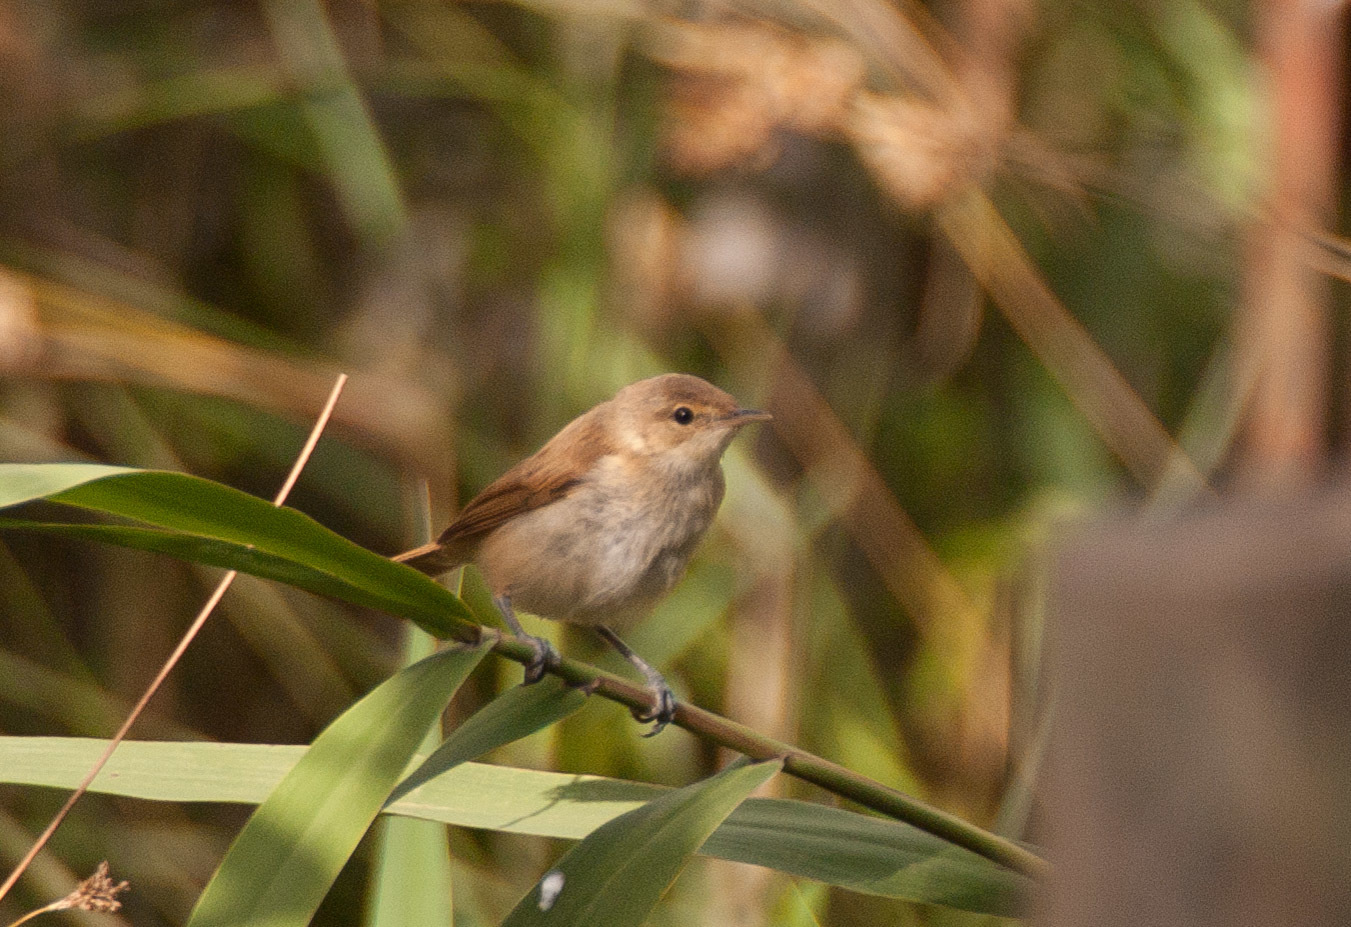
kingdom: Animalia
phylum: Chordata
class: Aves
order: Passeriformes
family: Acrocephalidae
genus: Acrocephalus
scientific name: Acrocephalus australis
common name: Australian reed warbler
